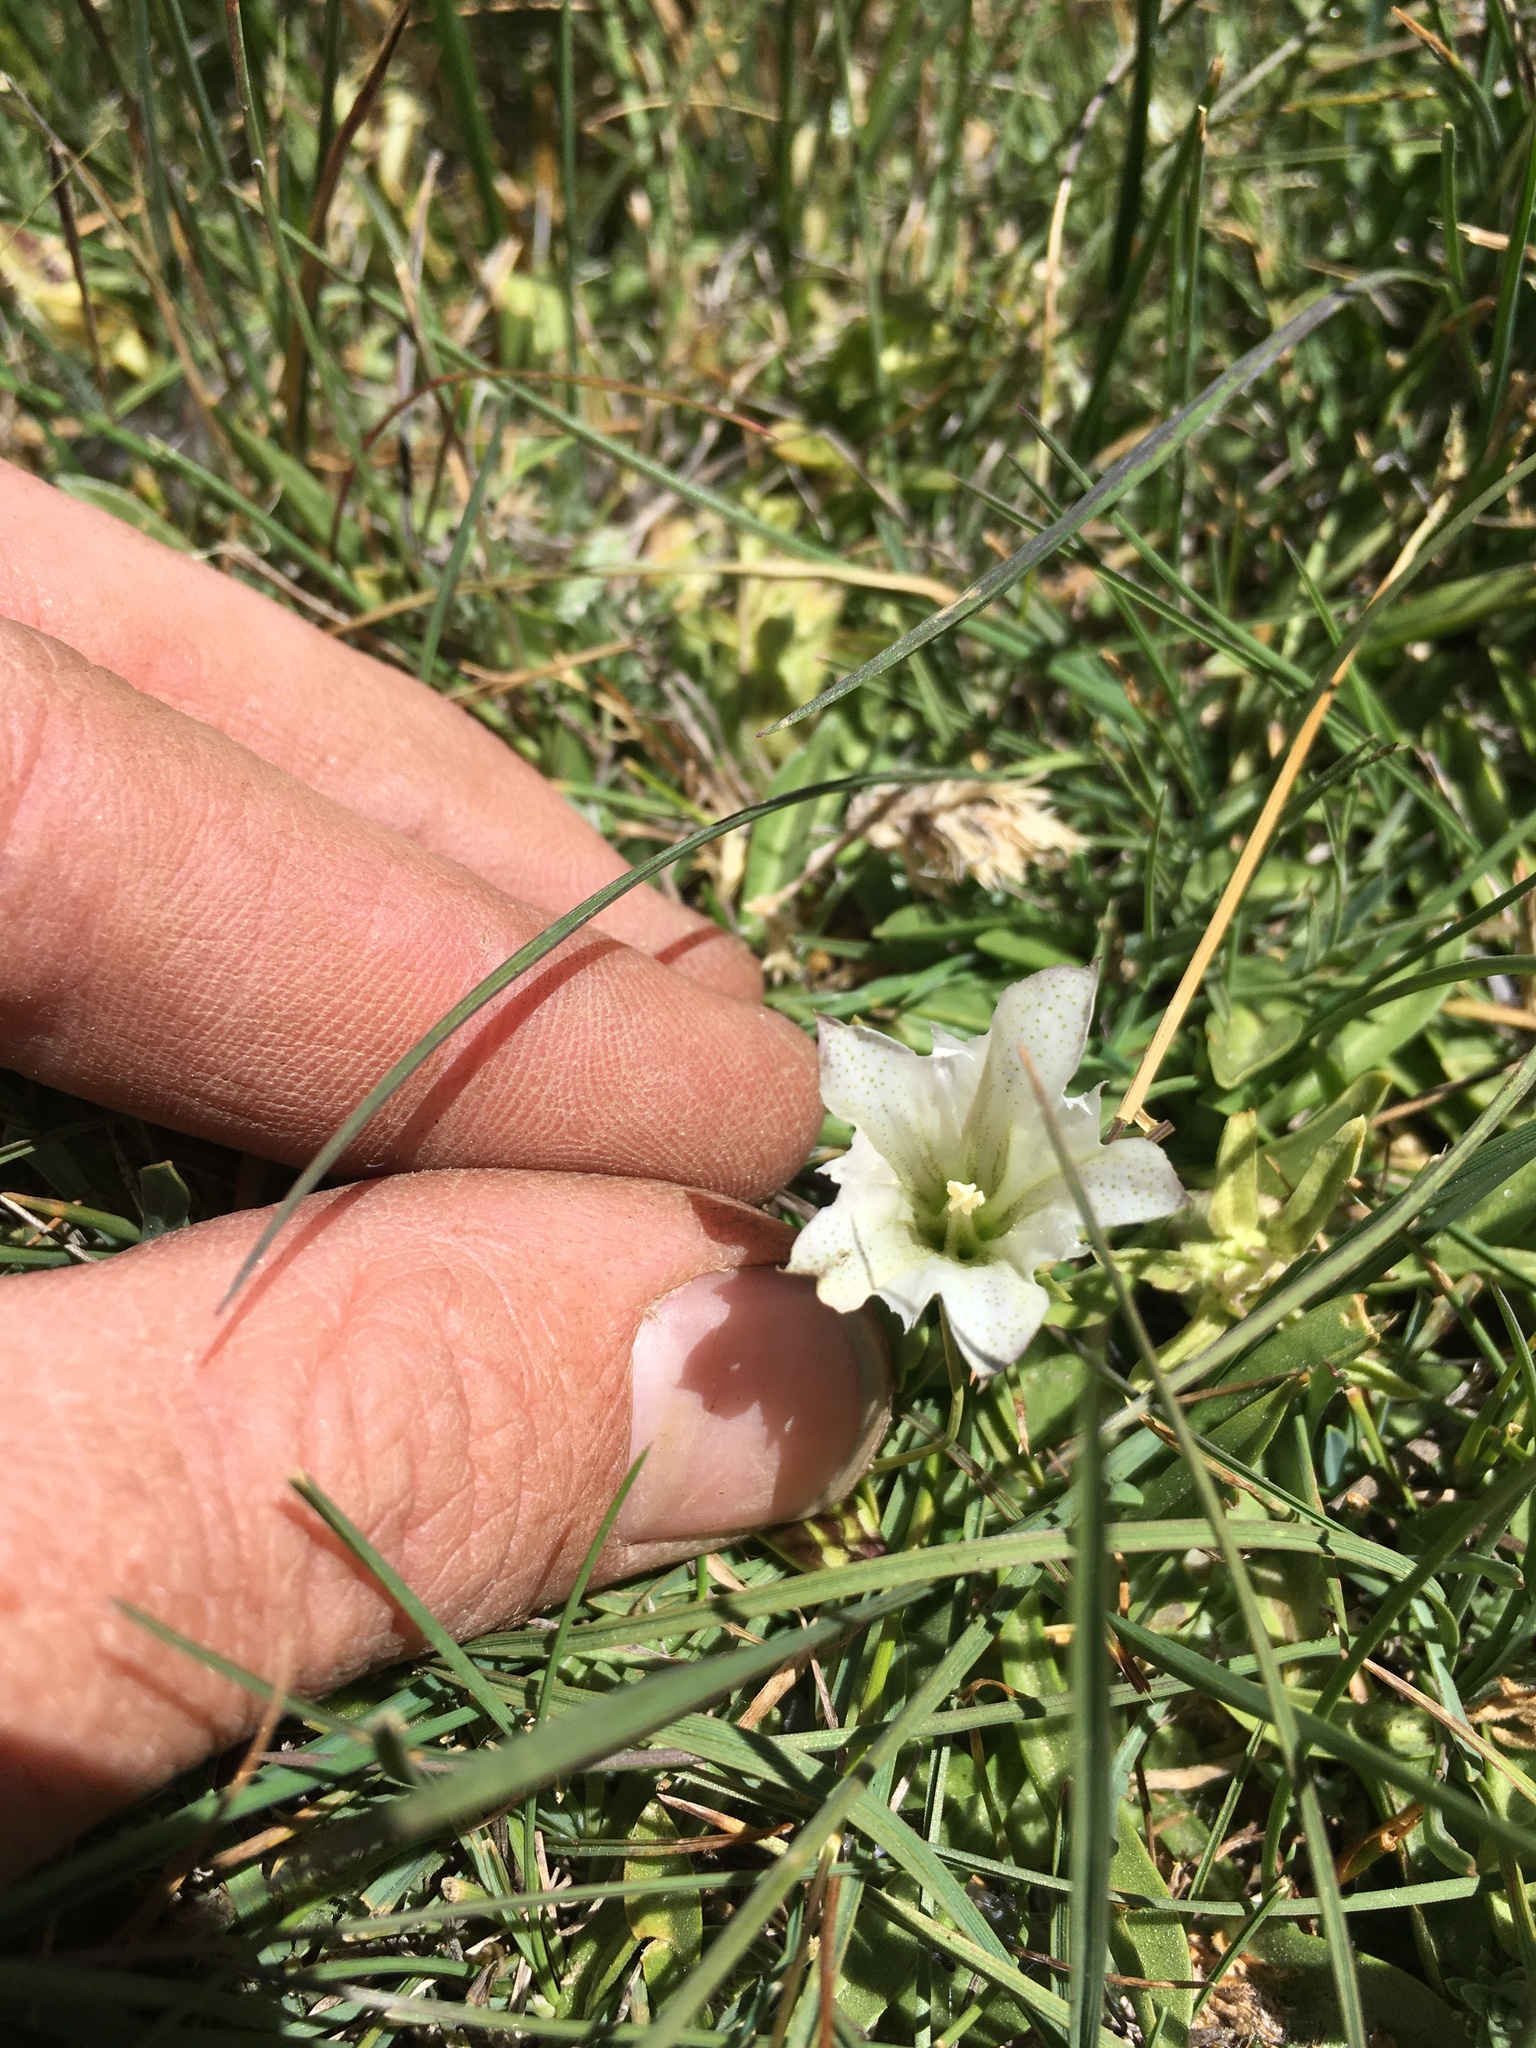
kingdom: Plantae
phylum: Tracheophyta
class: Magnoliopsida
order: Gentianales
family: Gentianaceae
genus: Gentiana
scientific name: Gentiana newberryi
